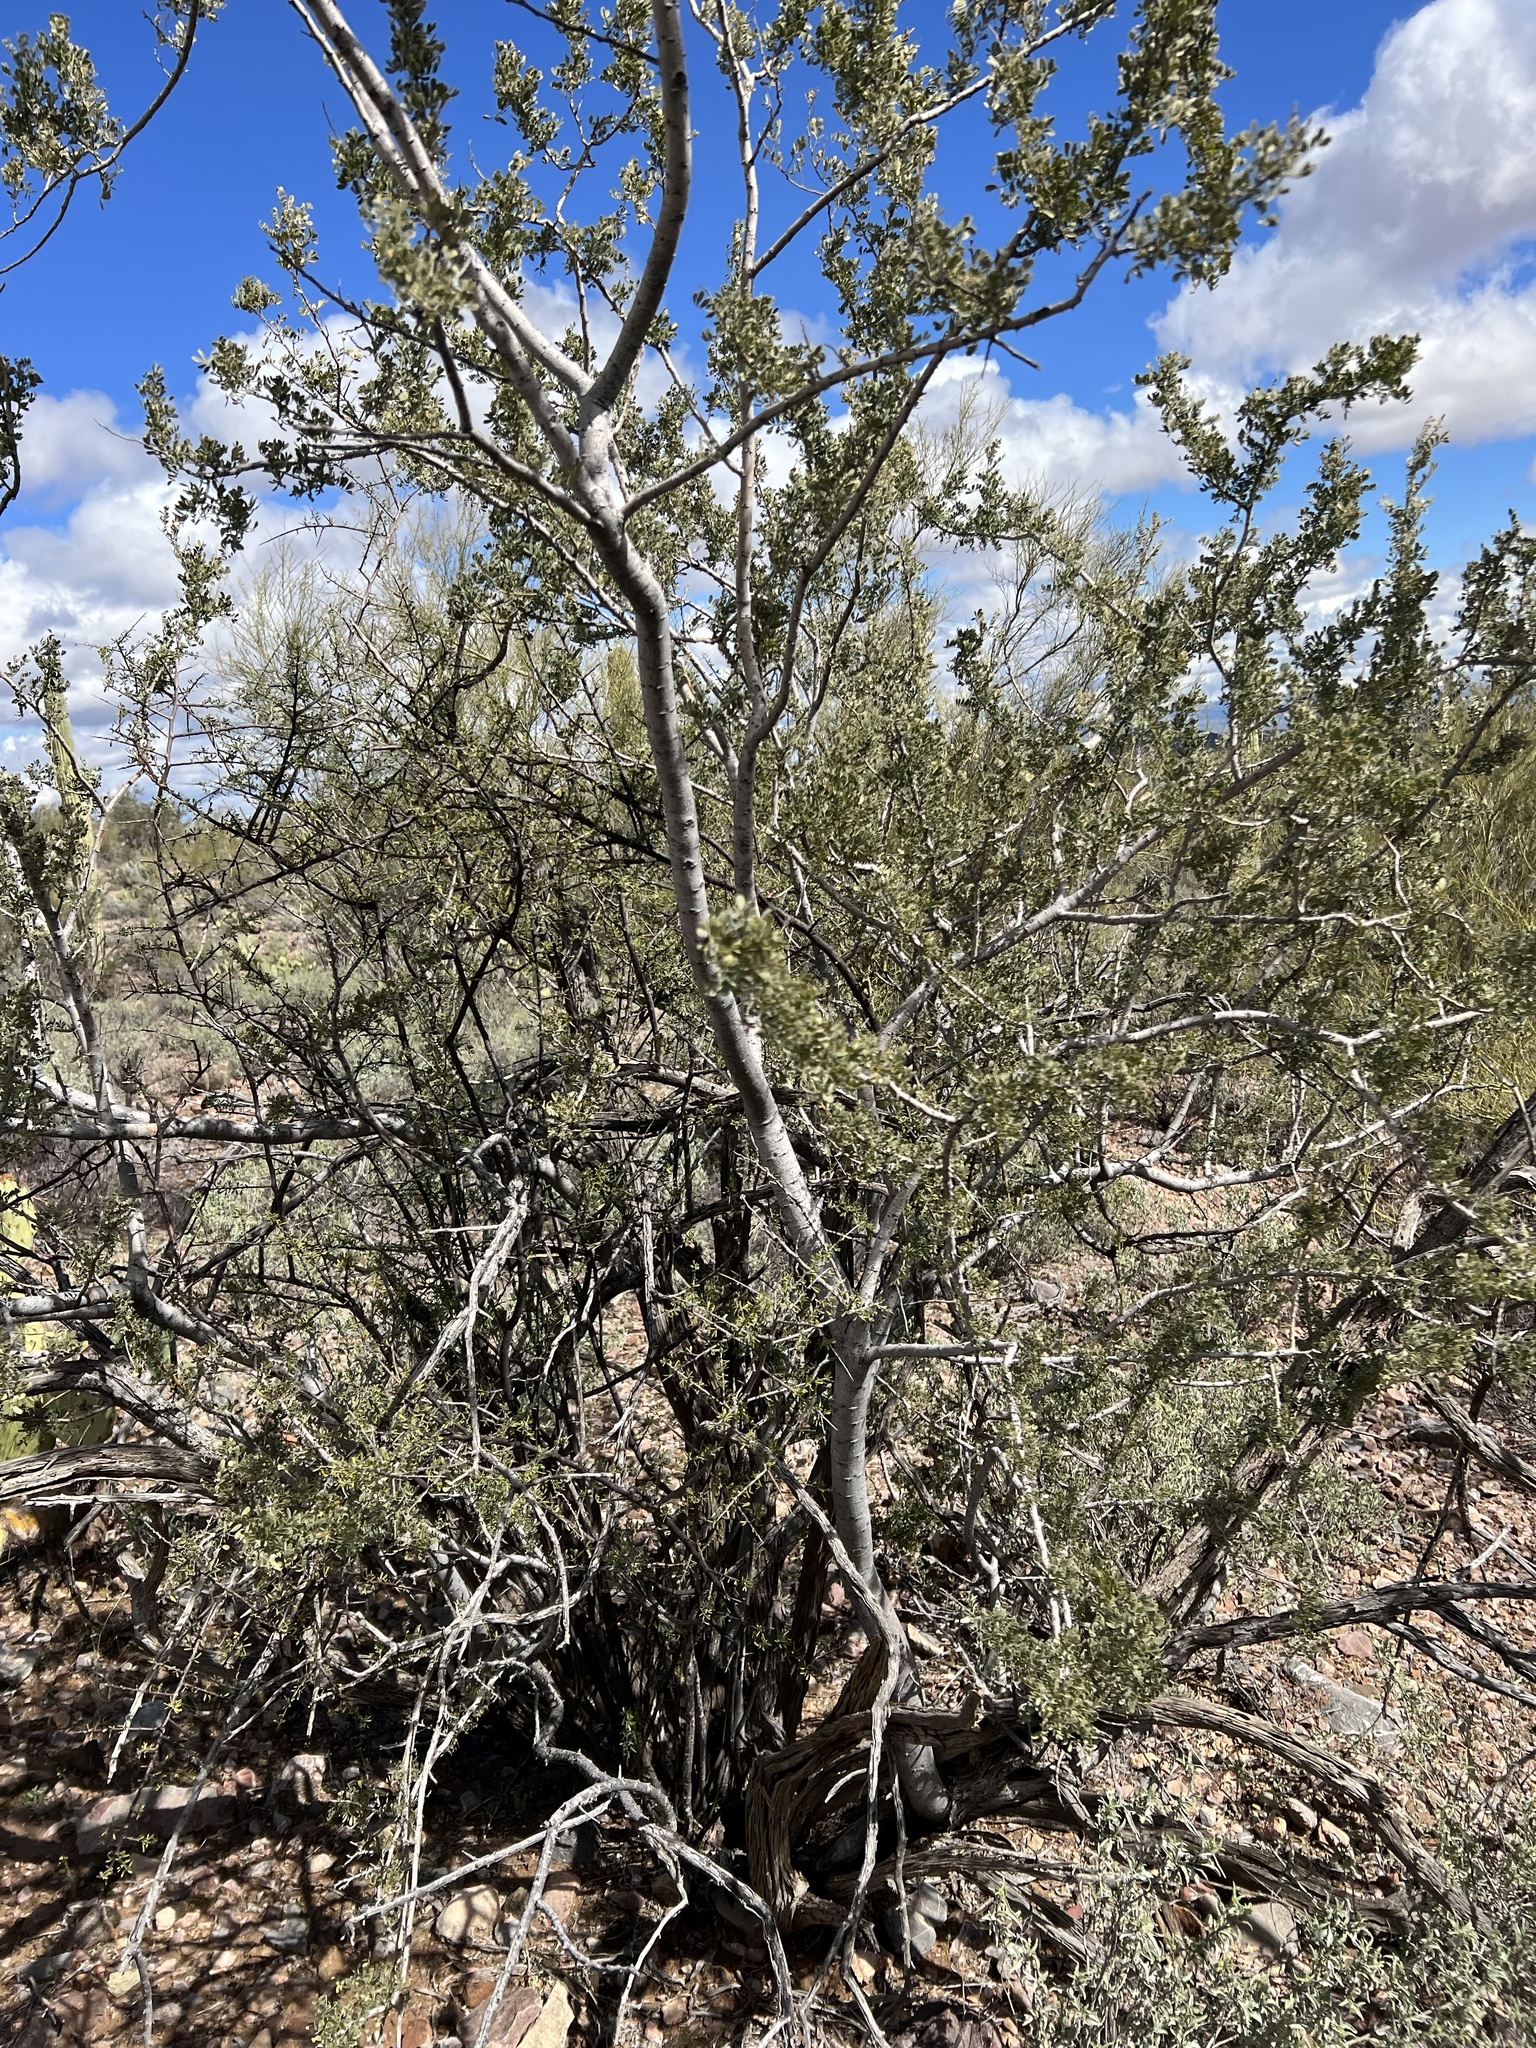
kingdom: Plantae
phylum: Tracheophyta
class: Magnoliopsida
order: Fabales
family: Fabaceae
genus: Olneya
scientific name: Olneya tesota
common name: Desert ironwood
